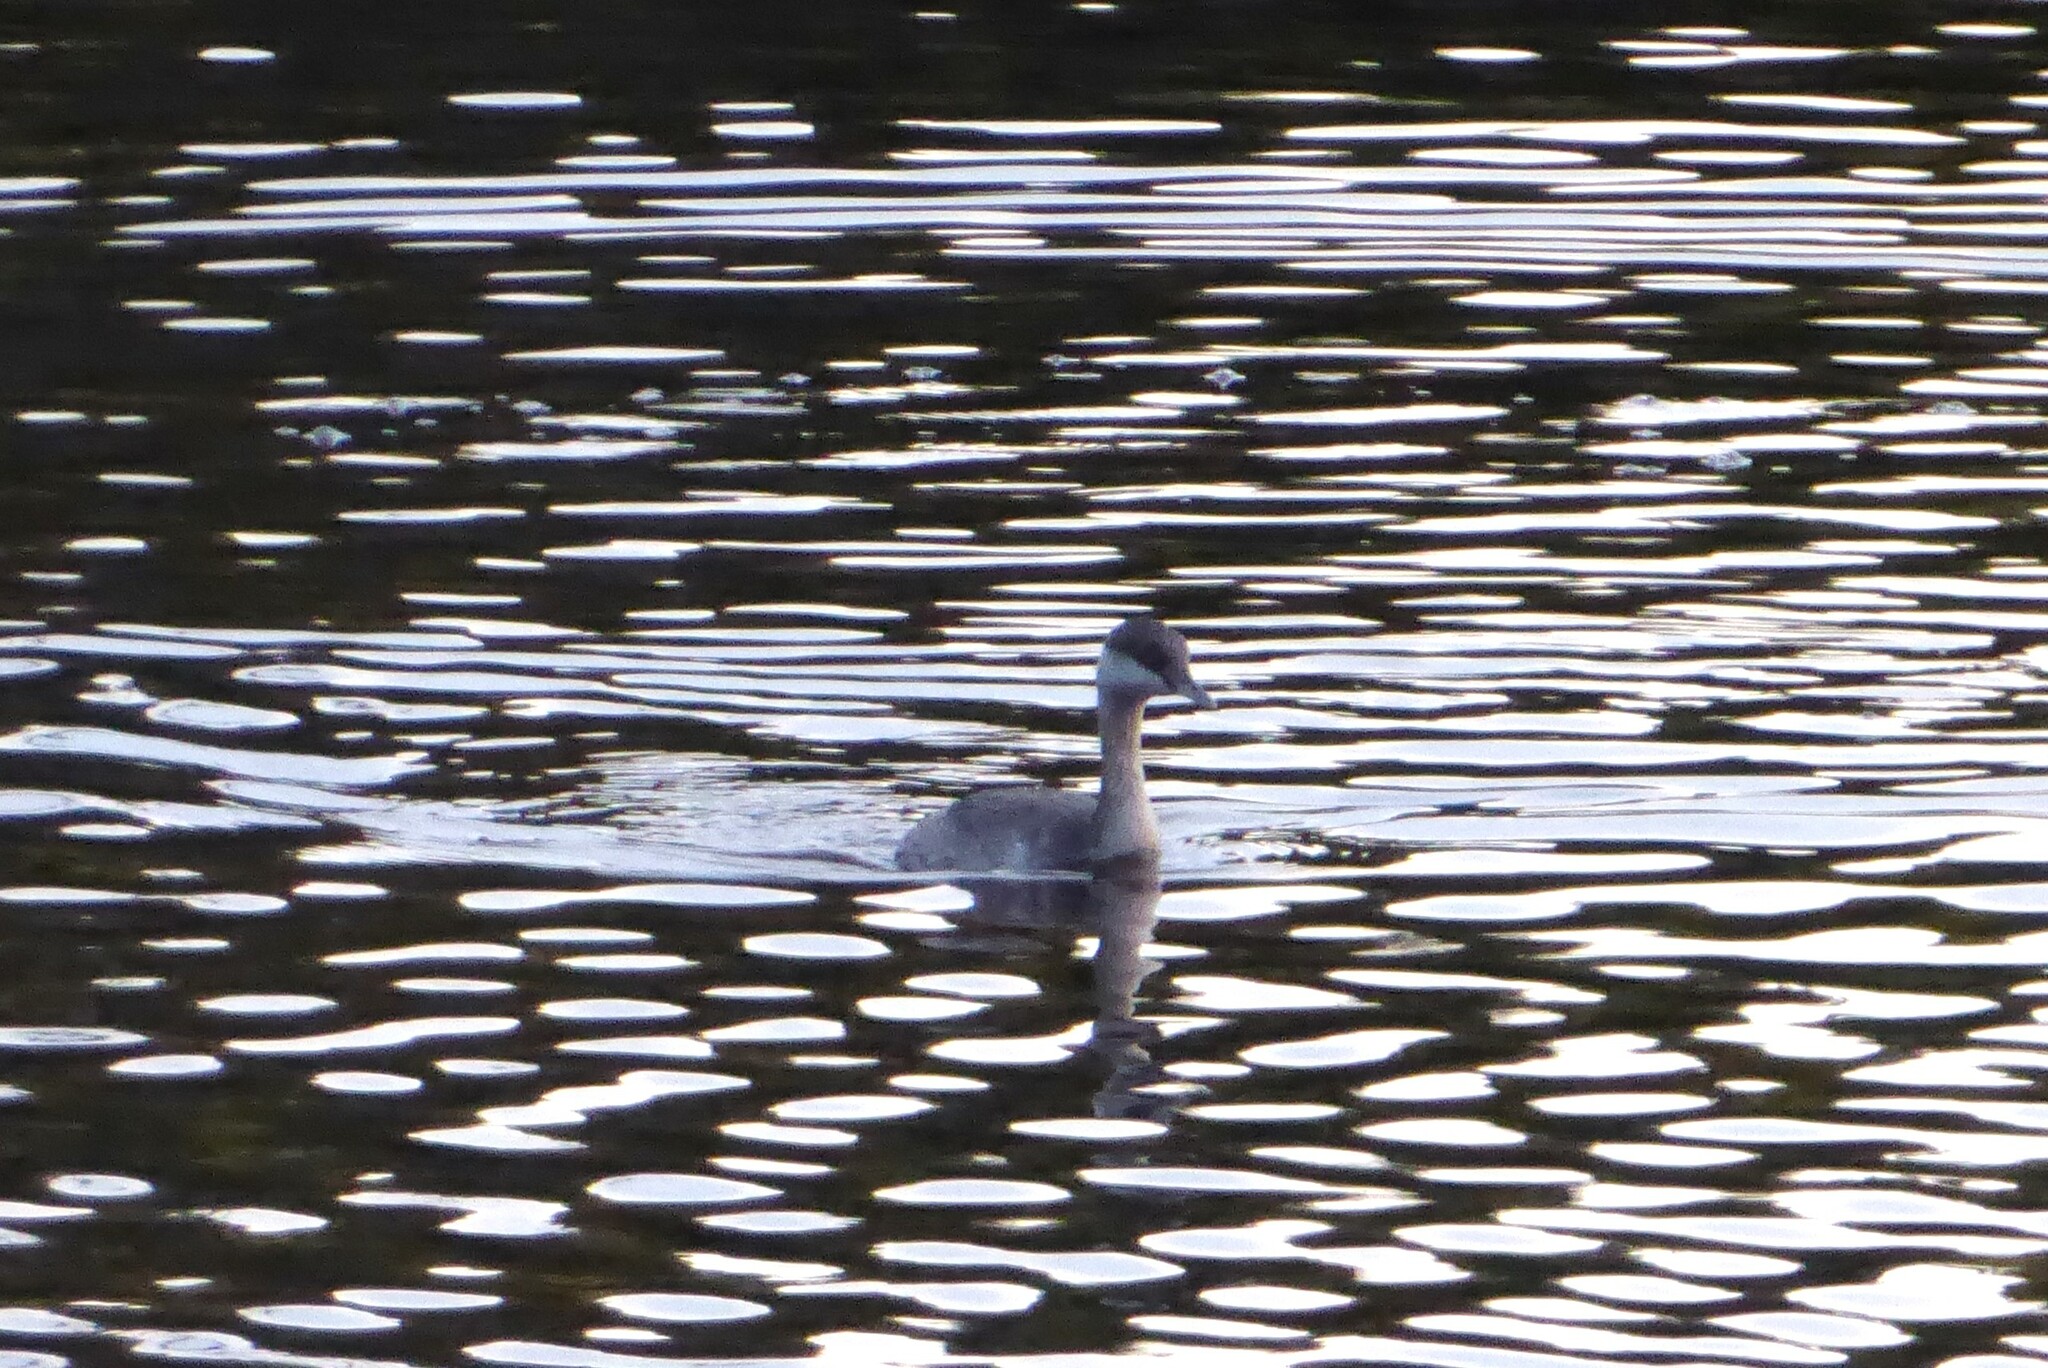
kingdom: Animalia
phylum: Chordata
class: Aves
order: Podicipediformes
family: Podicipedidae
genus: Poliocephalus
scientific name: Poliocephalus poliocephalus
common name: Hoary-headed grebe
